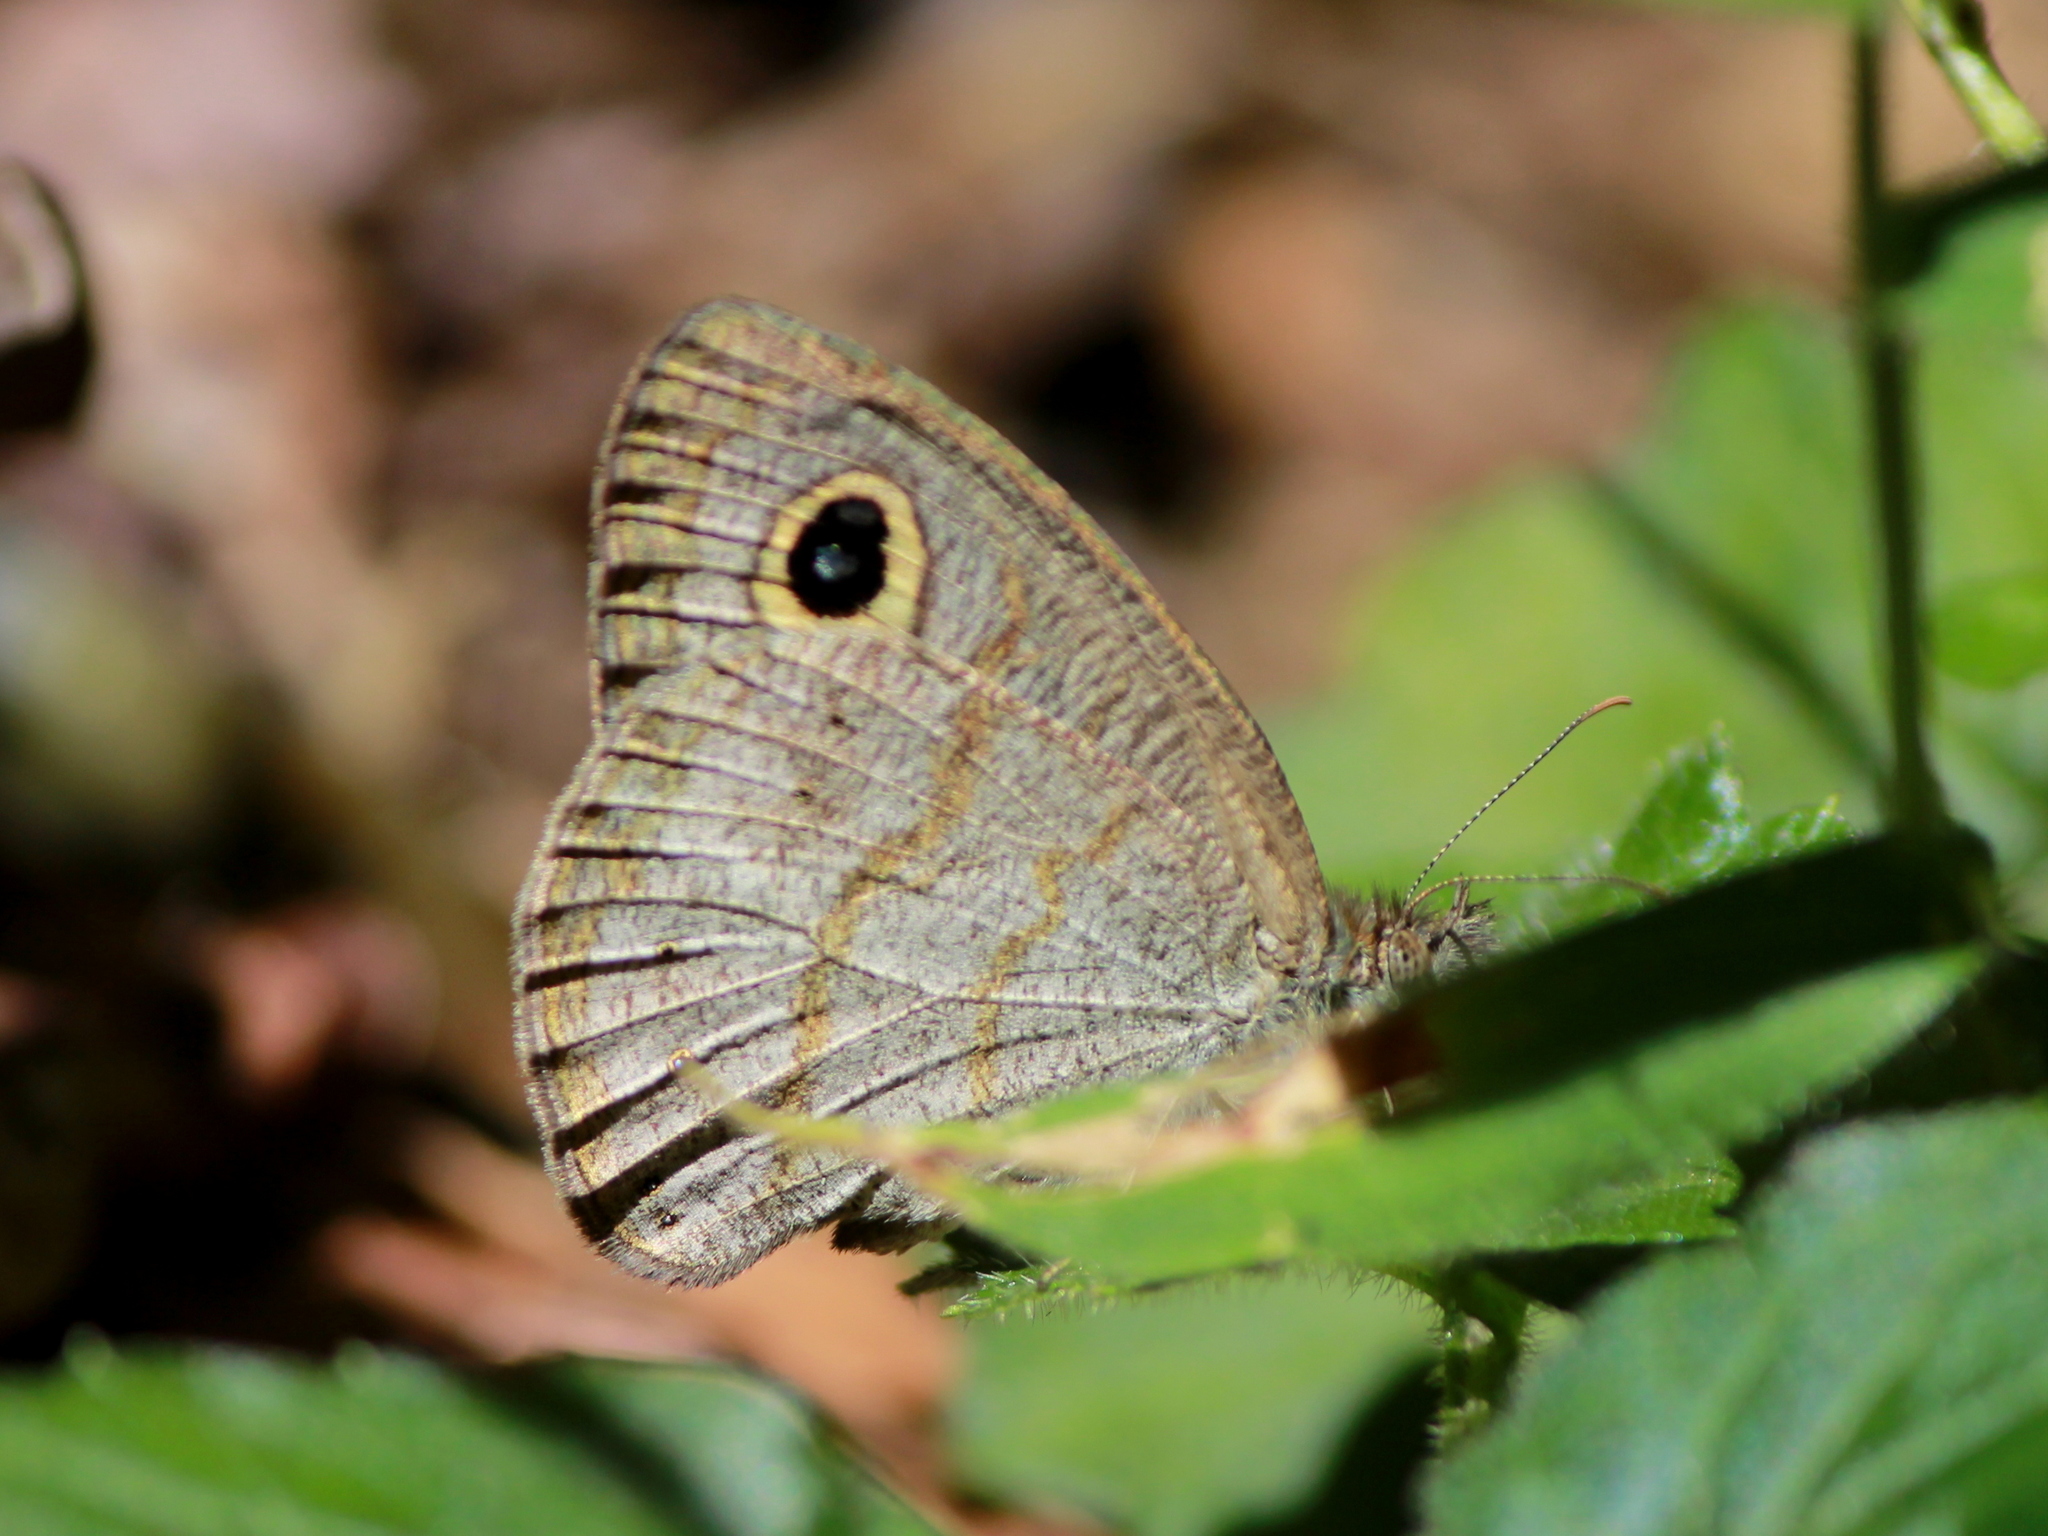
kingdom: Animalia
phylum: Arthropoda
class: Insecta
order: Lepidoptera
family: Nymphalidae
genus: Ypthima
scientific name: Ypthima baldus
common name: Common five-ring
